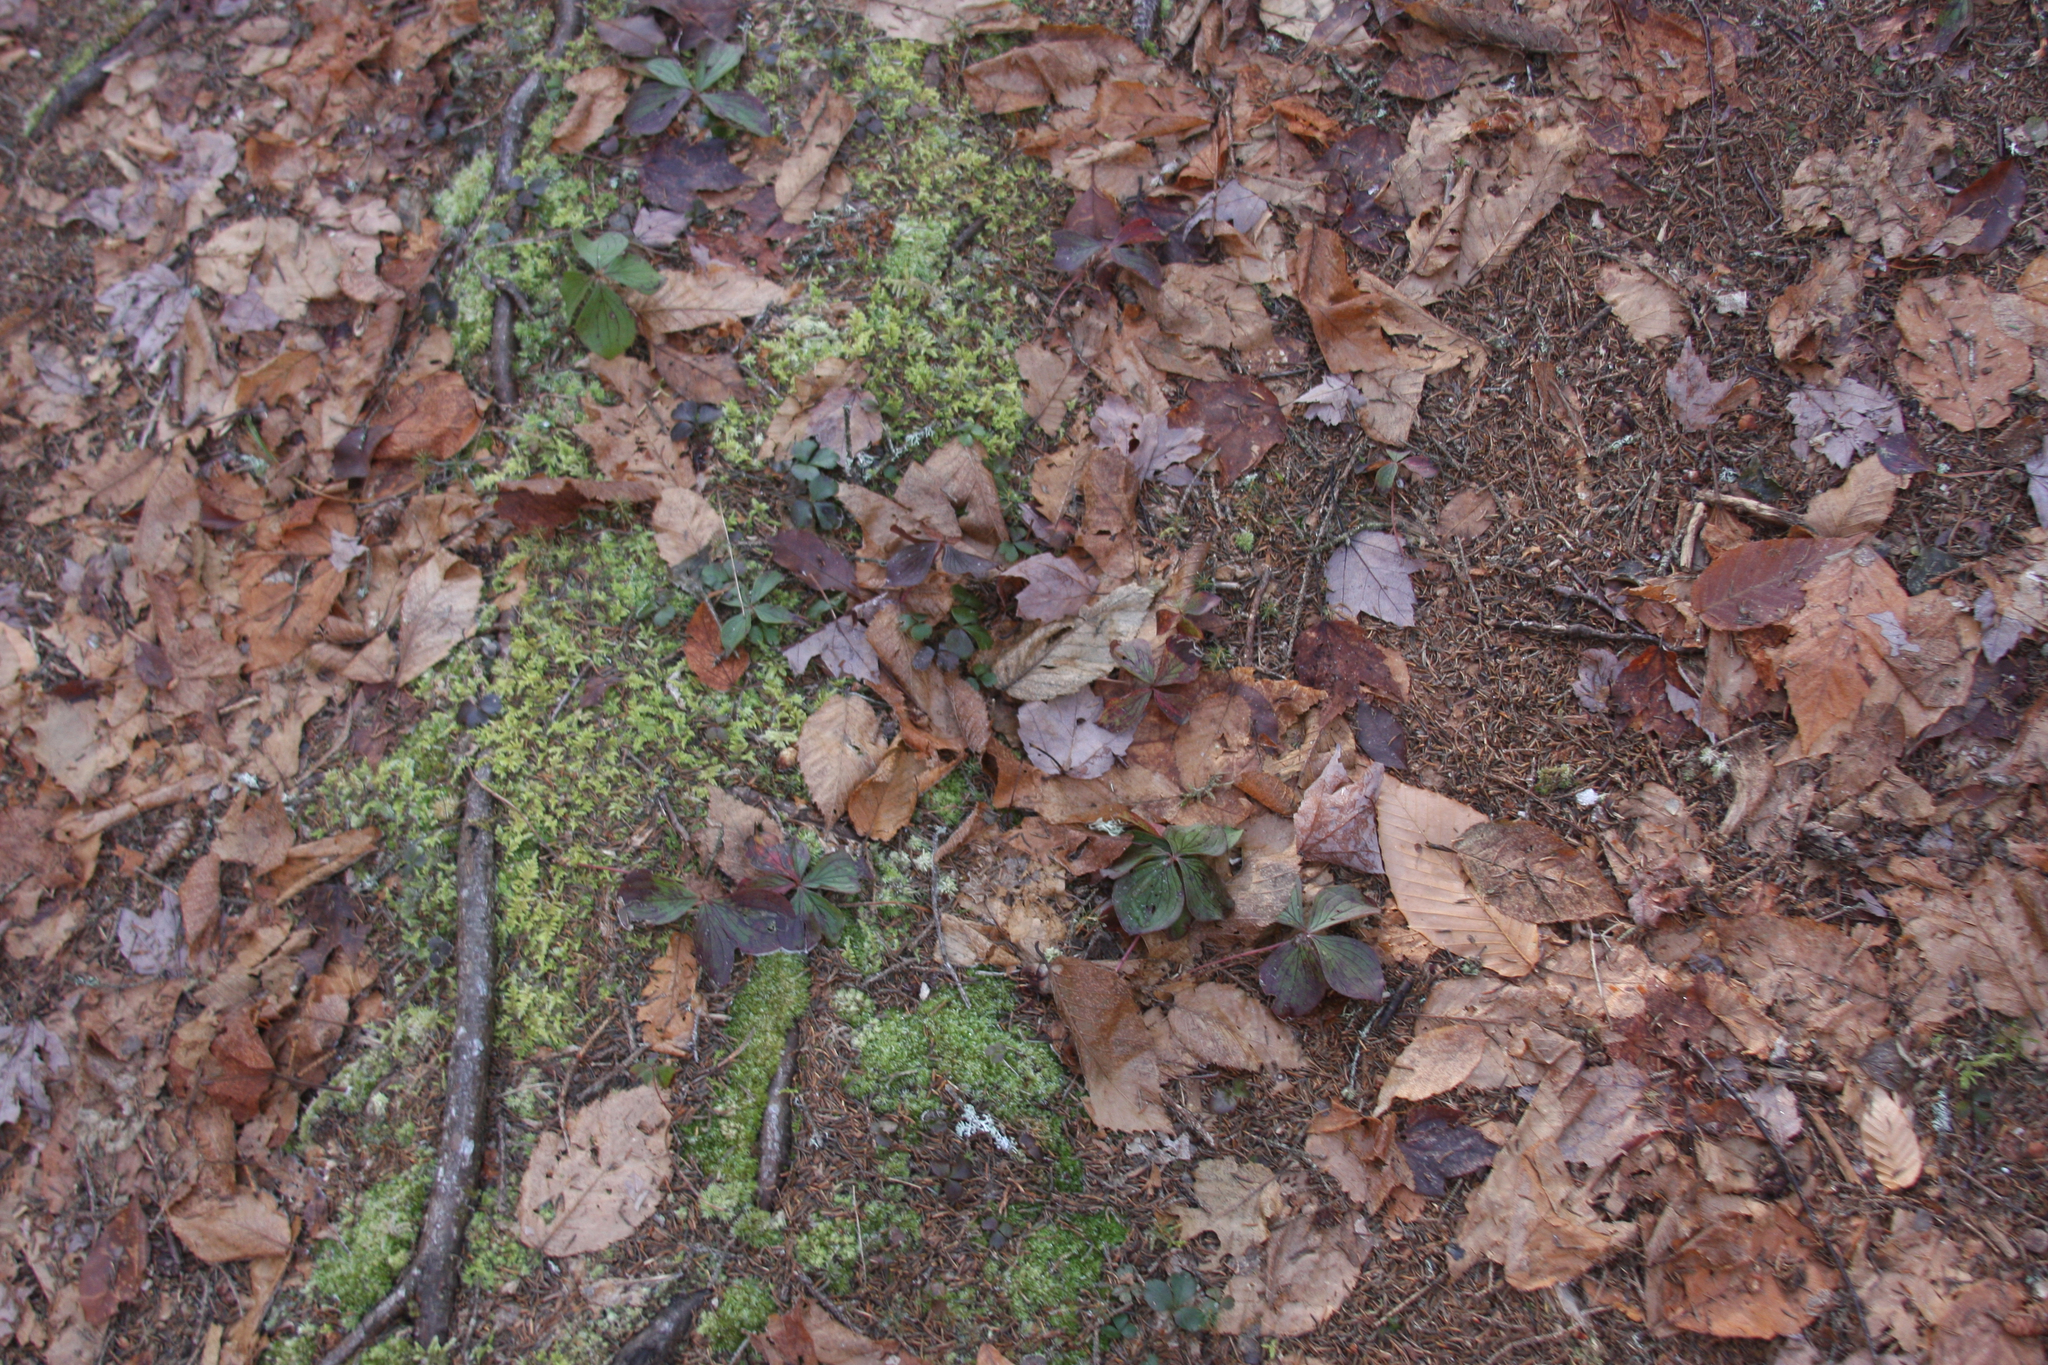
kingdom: Plantae
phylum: Tracheophyta
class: Magnoliopsida
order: Cornales
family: Cornaceae
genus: Cornus
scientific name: Cornus canadensis
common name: Creeping dogwood
